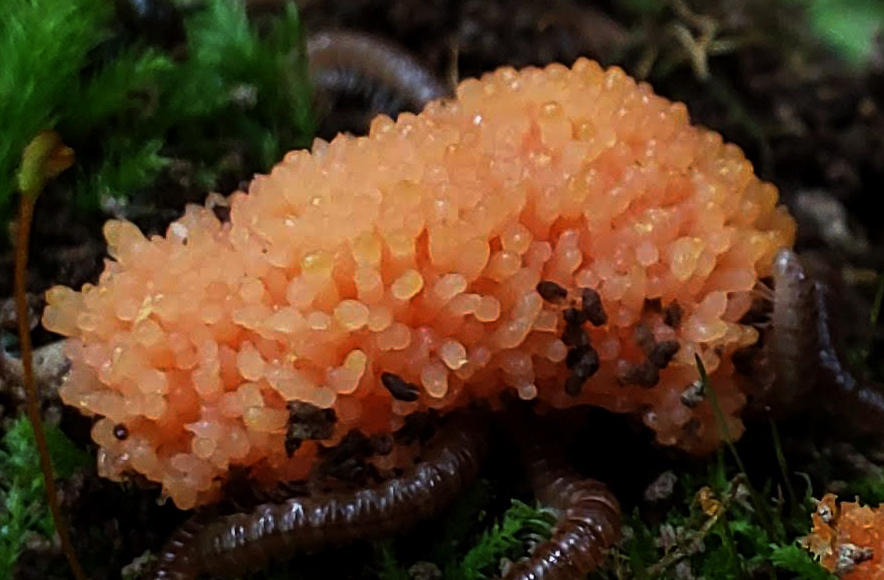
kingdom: Protozoa
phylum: Mycetozoa
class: Myxomycetes
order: Cribrariales
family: Tubiferaceae
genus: Tubifera
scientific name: Tubifera ferruginosa
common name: Red raspberry slime mold
